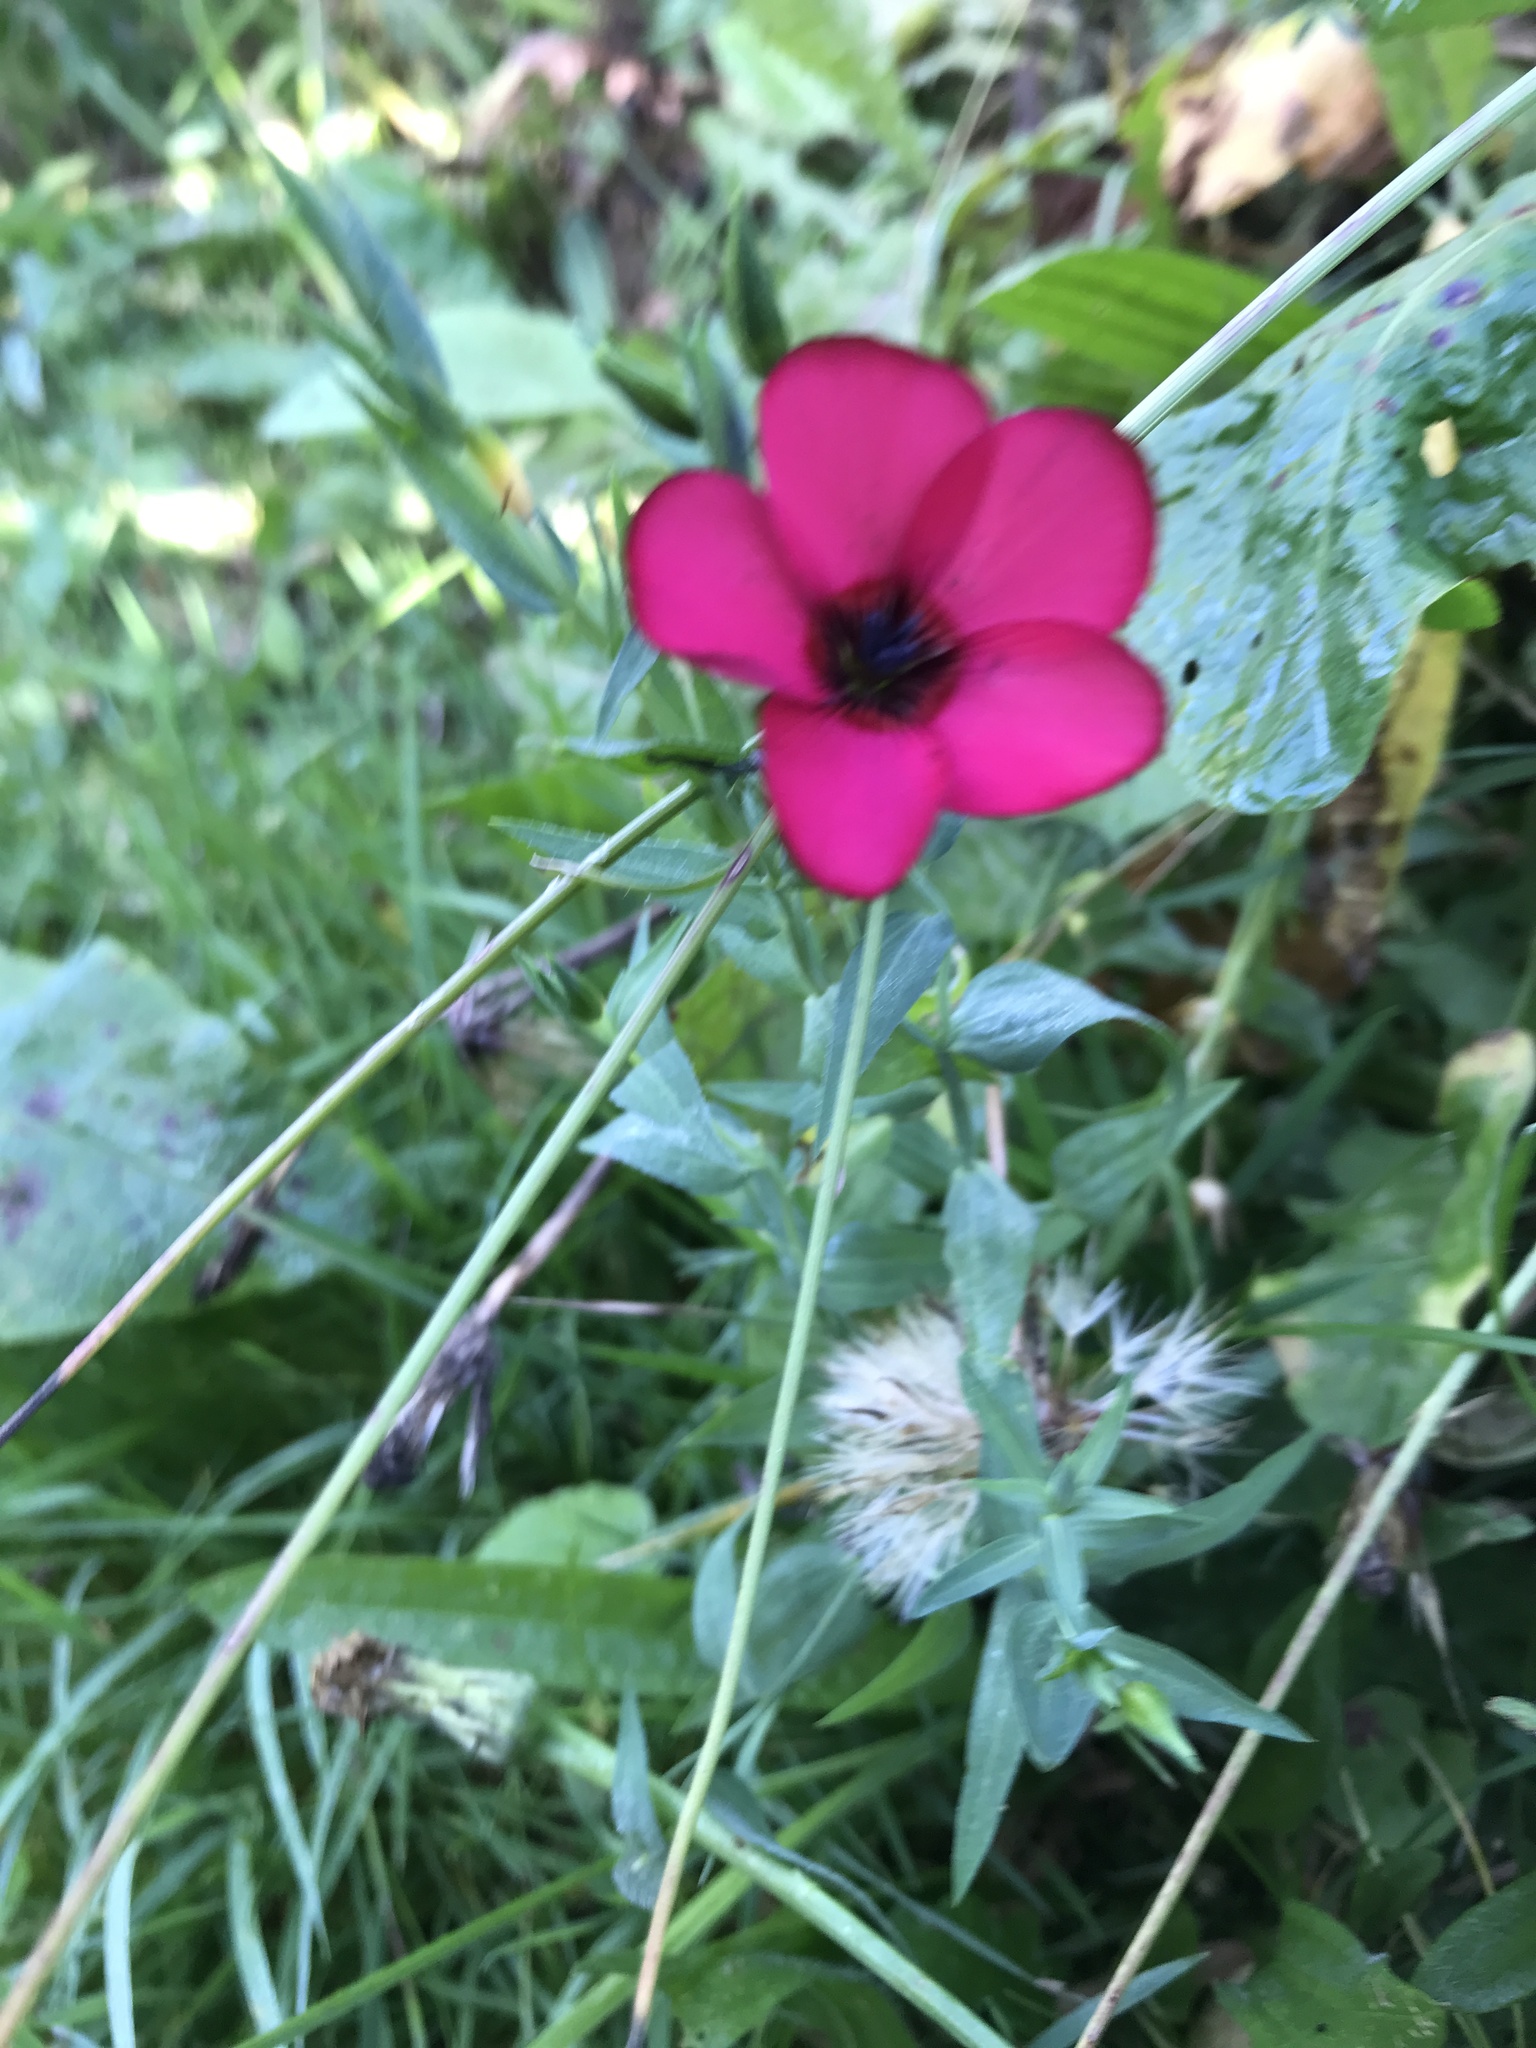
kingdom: Plantae
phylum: Tracheophyta
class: Magnoliopsida
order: Malpighiales
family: Linaceae
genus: Linum
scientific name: Linum grandiflorum
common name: Crimson flax
